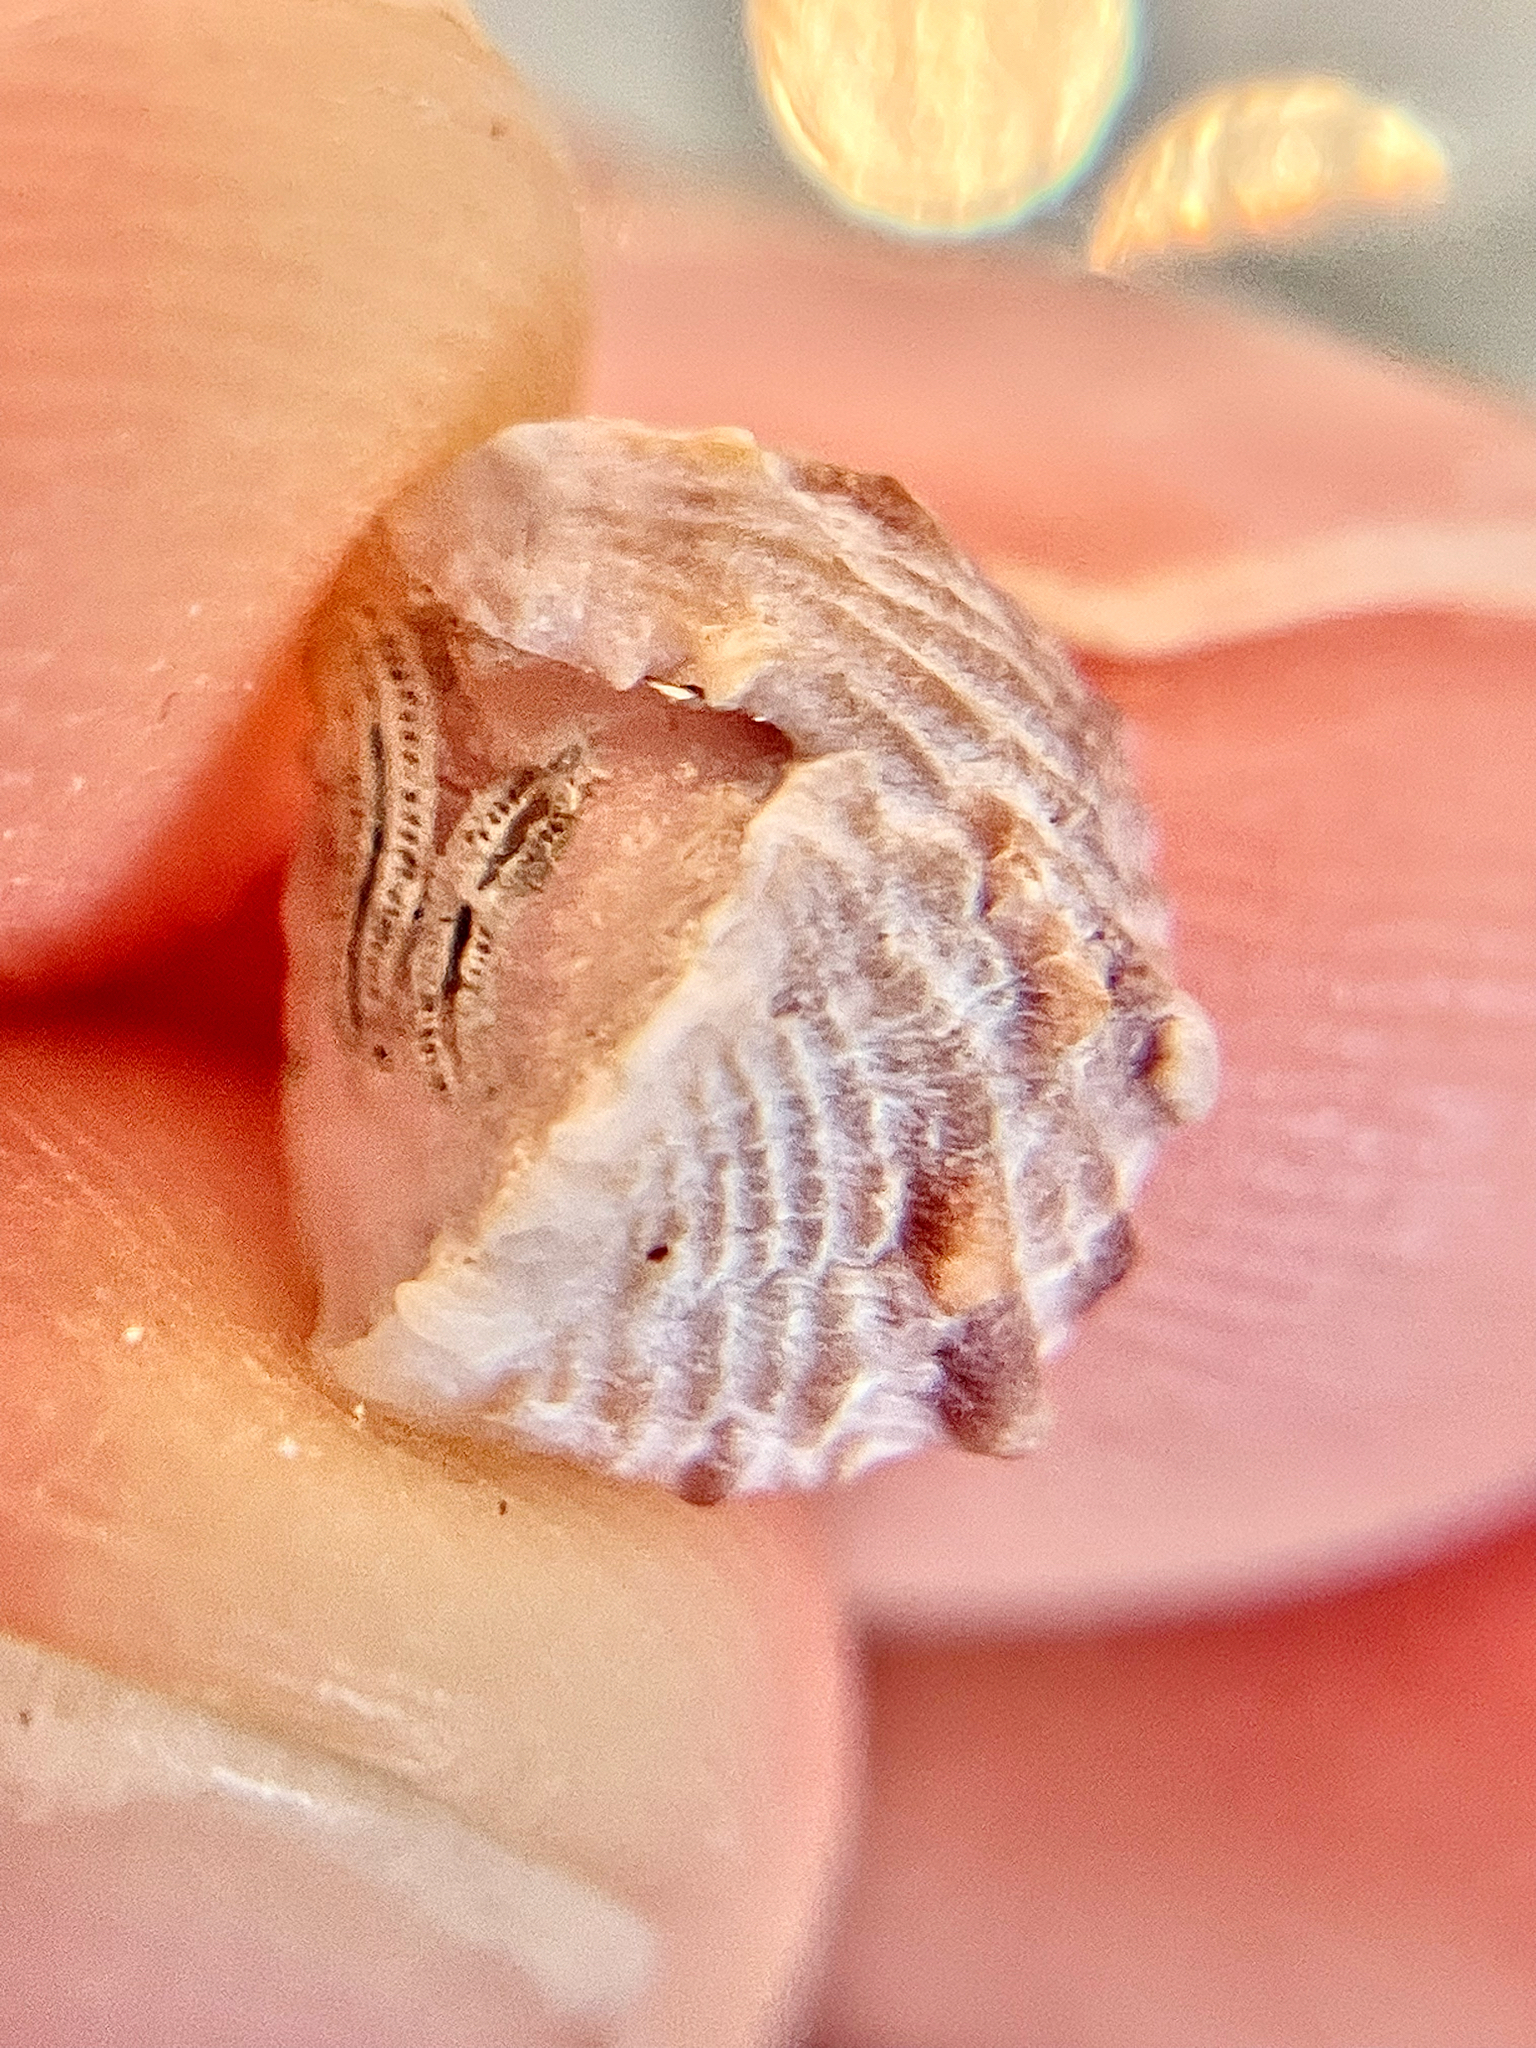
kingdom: Animalia
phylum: Mollusca
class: Bivalvia
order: Venerida
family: Chamidae
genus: Chama
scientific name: Chama congregata
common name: Corrugate jewelbox
